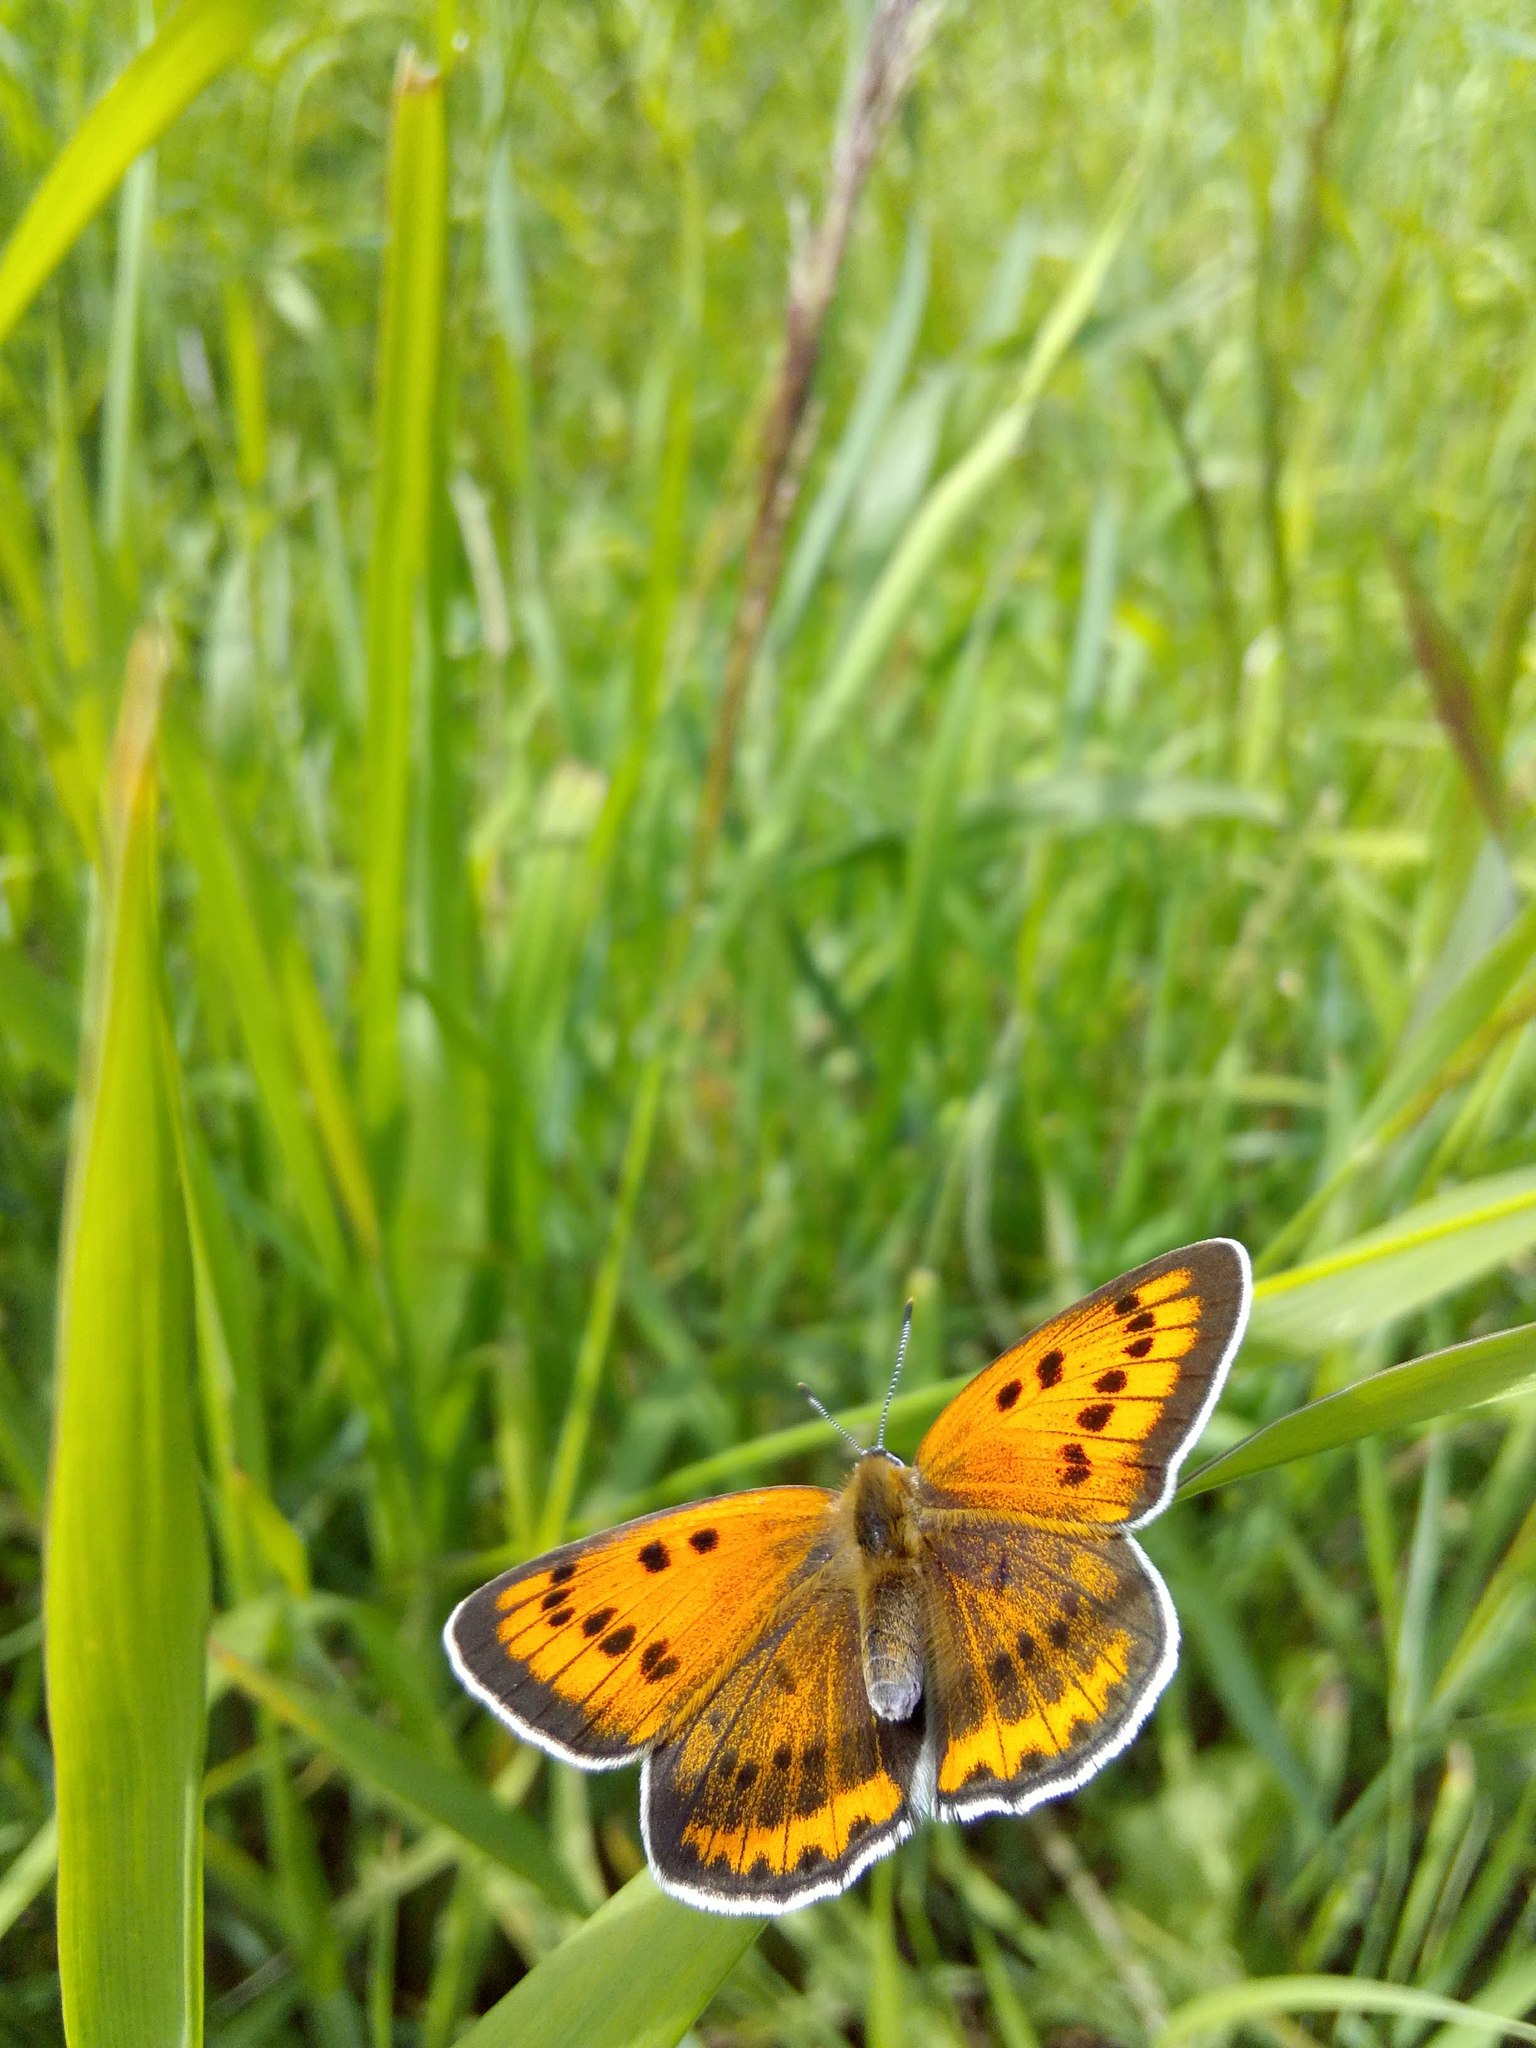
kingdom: Animalia
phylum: Arthropoda
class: Insecta
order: Lepidoptera
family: Lycaenidae
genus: Lycaena
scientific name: Lycaena dispar
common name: Large copper
